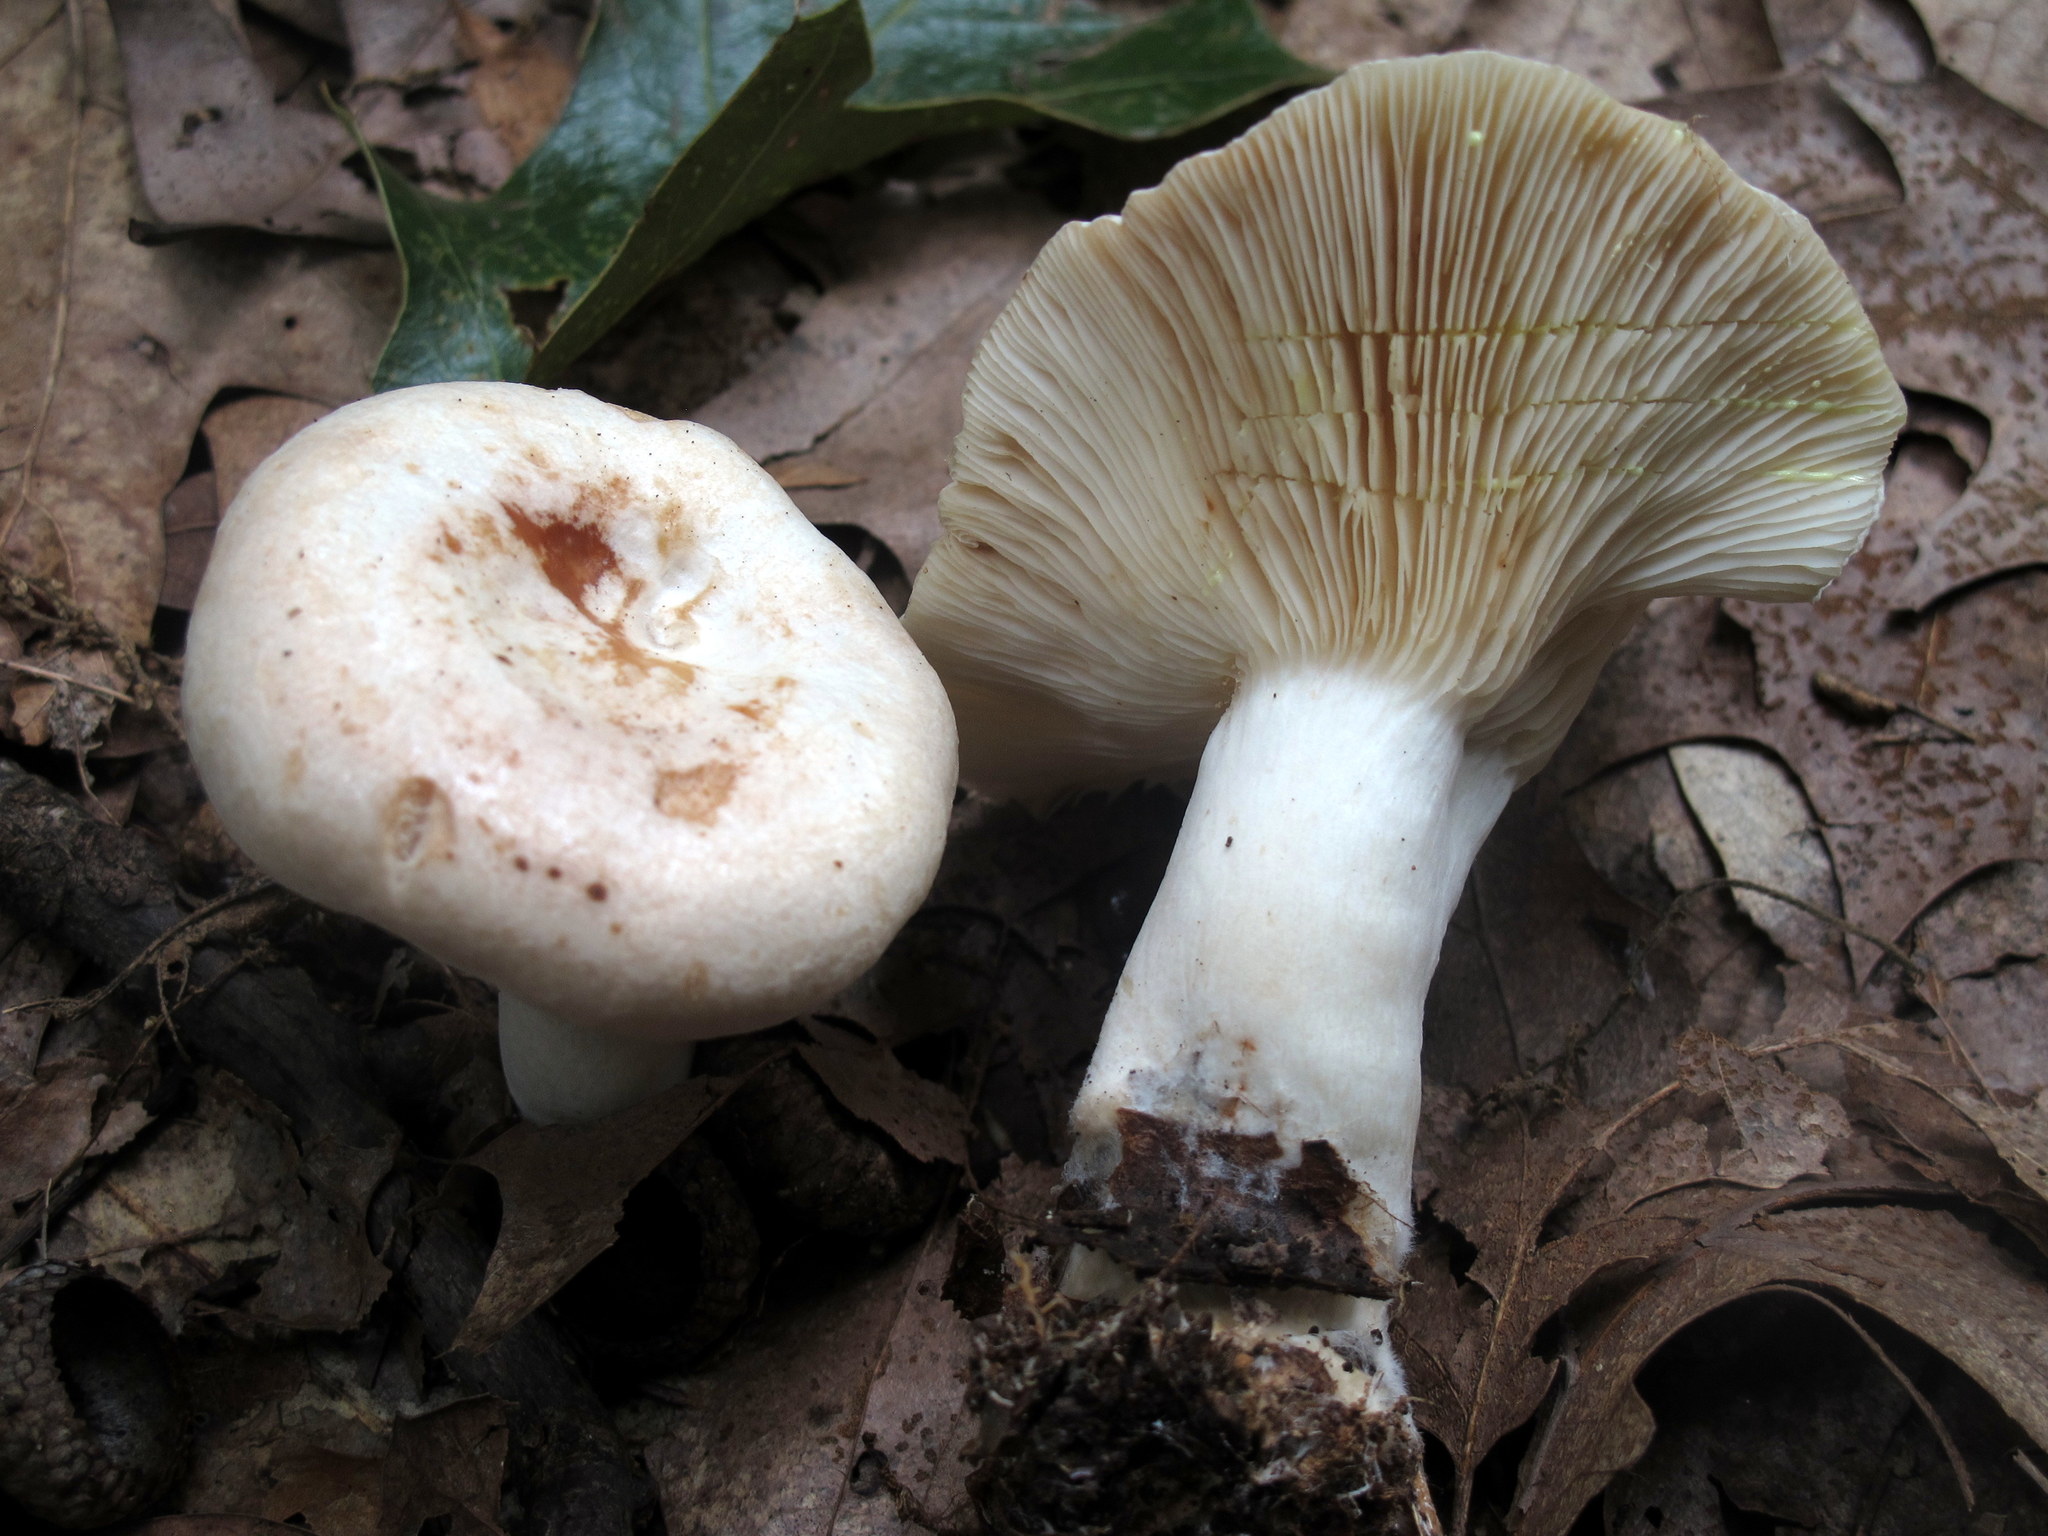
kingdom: Fungi
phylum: Basidiomycota
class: Agaricomycetes
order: Russulales
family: Russulaceae
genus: Lactarius
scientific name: Lactarius chrysorrheus
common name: Yellowdrop milkcap
